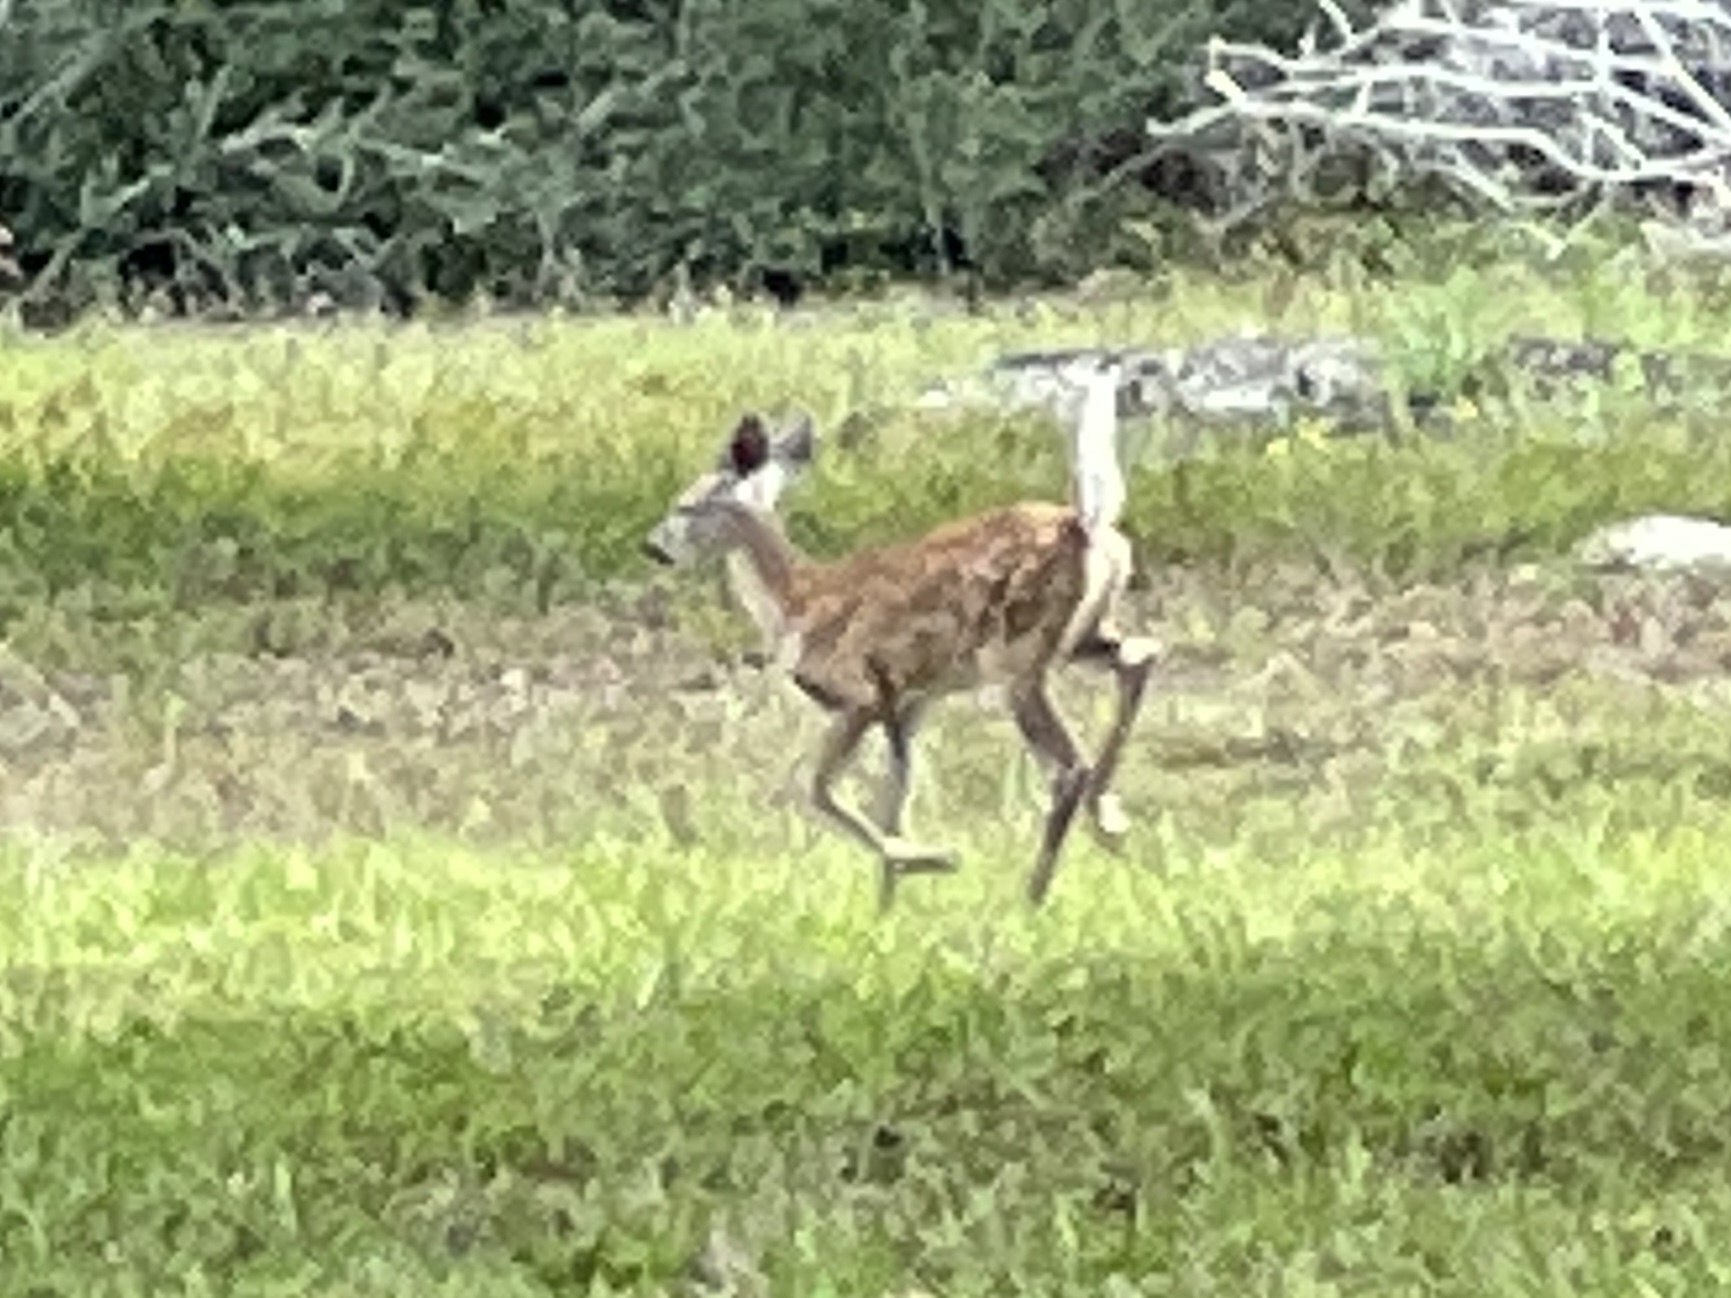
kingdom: Animalia
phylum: Chordata
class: Mammalia
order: Artiodactyla
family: Cervidae
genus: Odocoileus
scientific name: Odocoileus virginianus
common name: White-tailed deer
